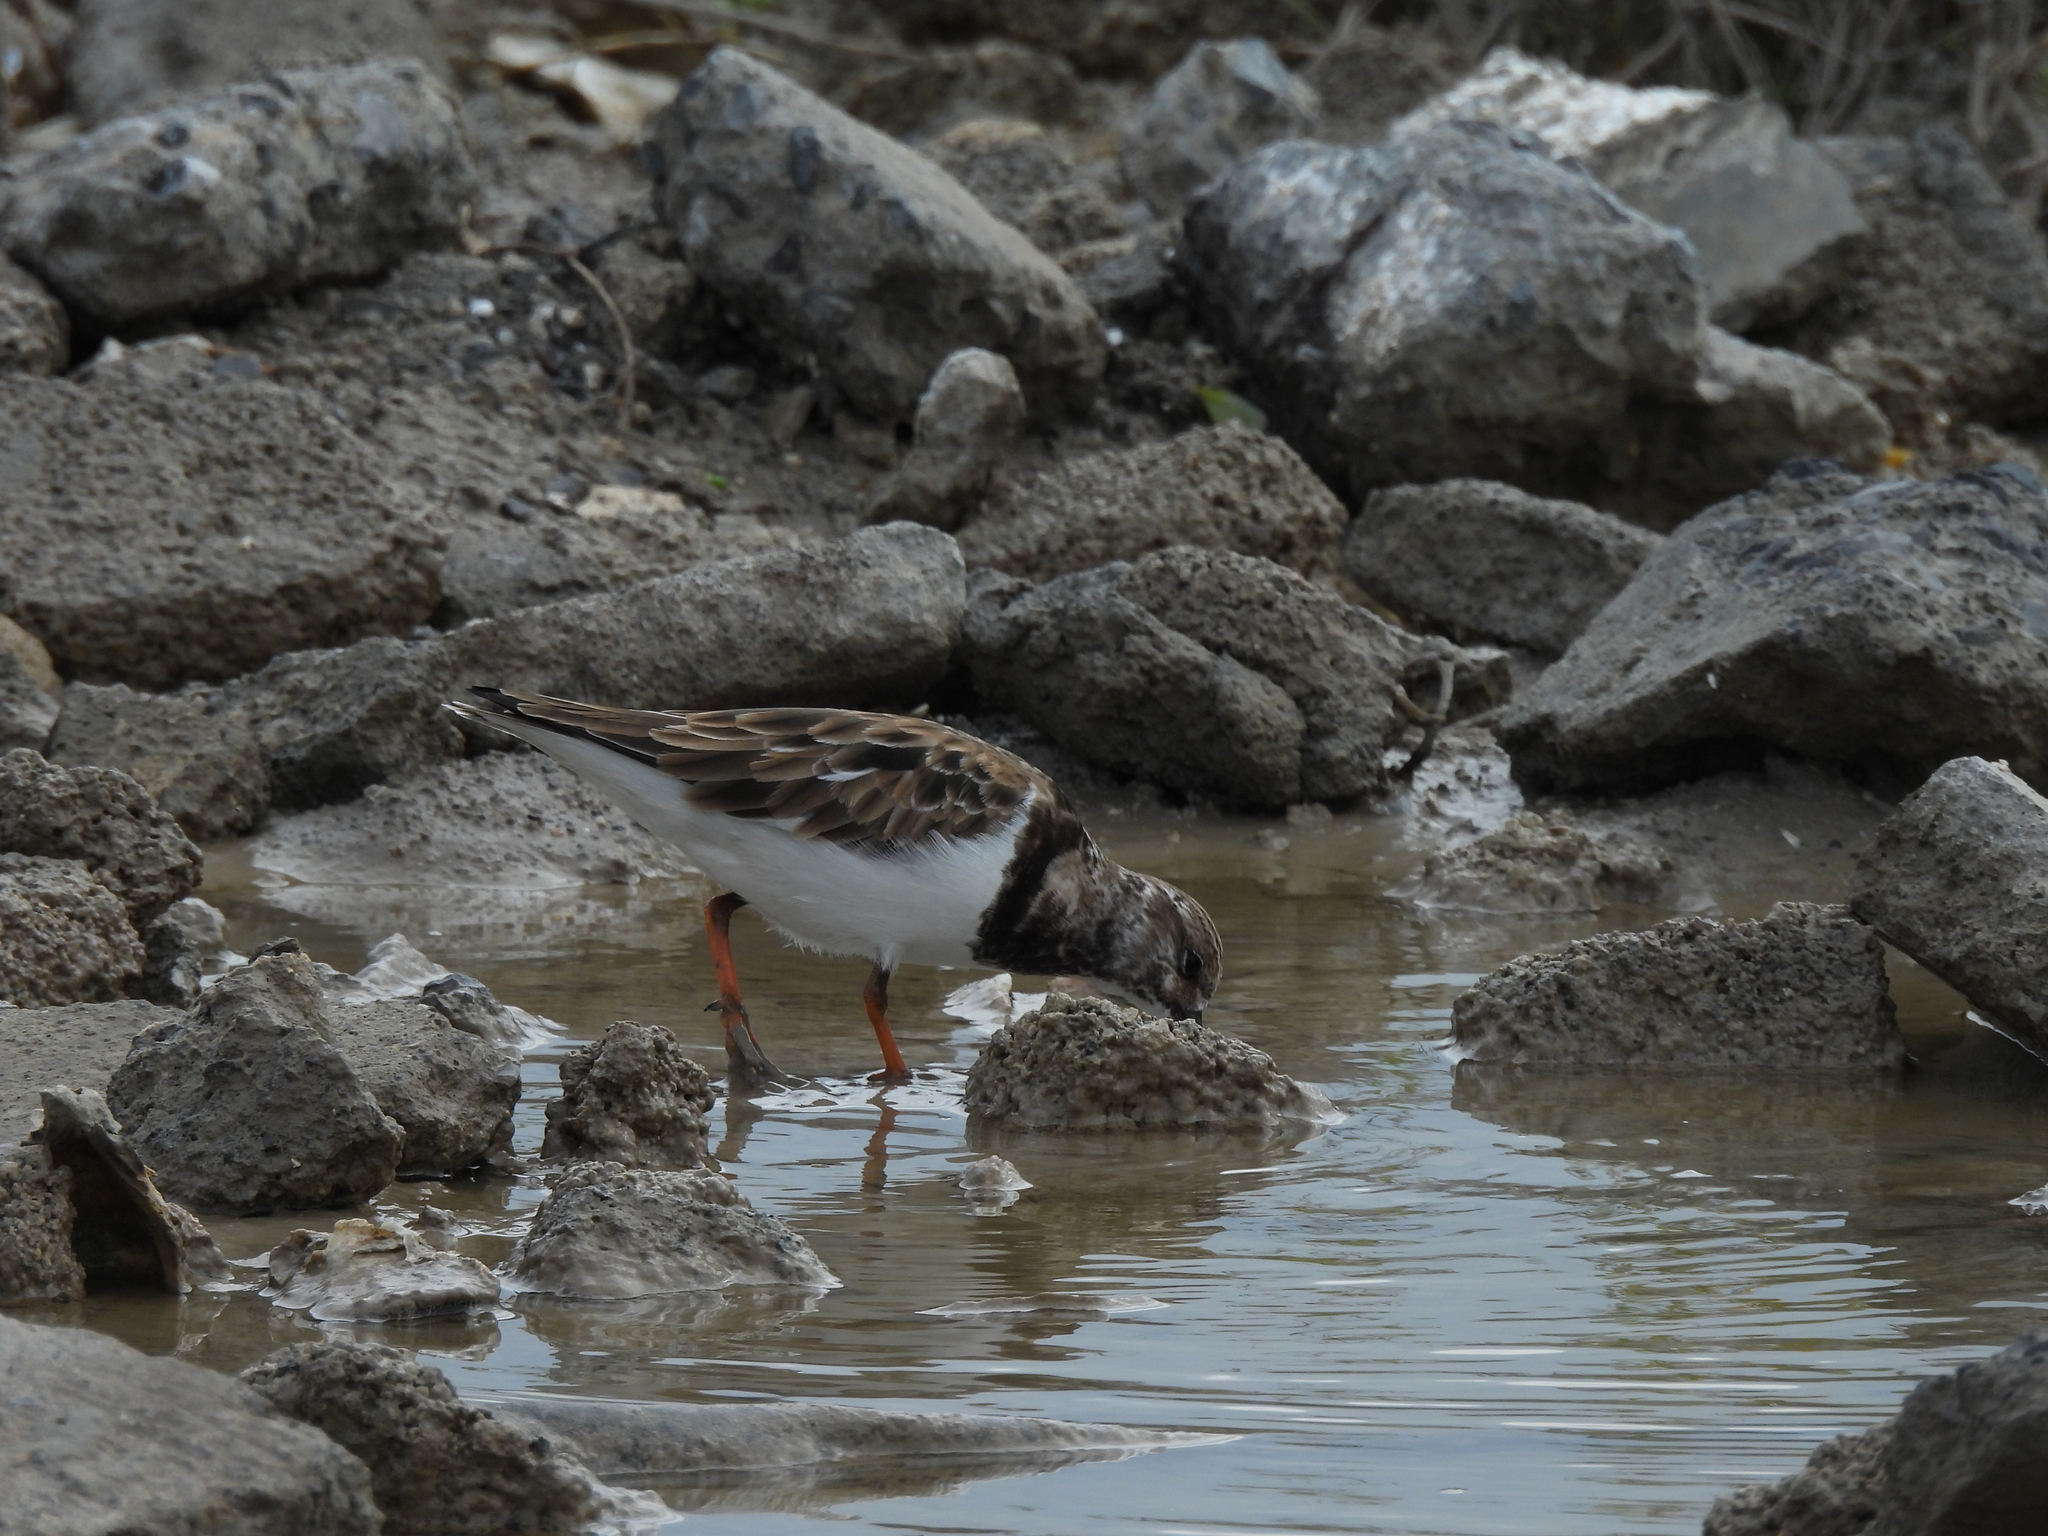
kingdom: Animalia
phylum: Chordata
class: Aves
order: Charadriiformes
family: Scolopacidae
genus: Arenaria
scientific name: Arenaria interpres
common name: Ruddy turnstone
